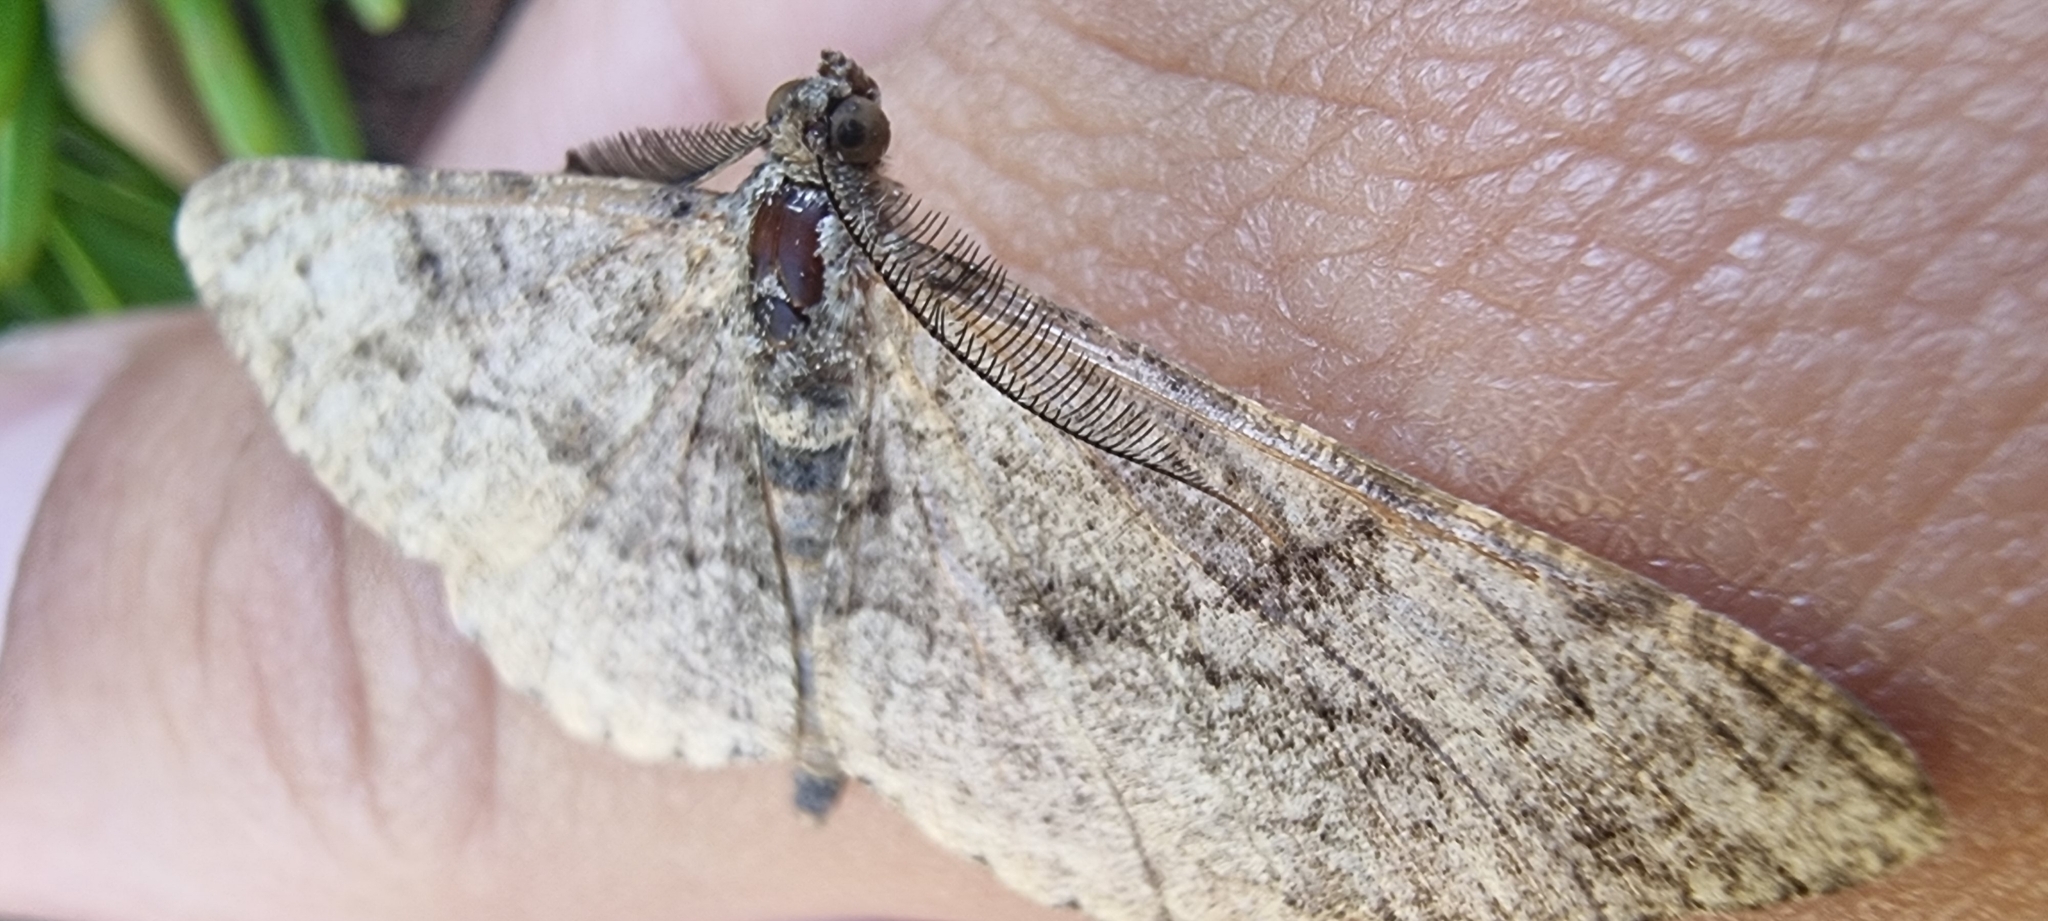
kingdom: Animalia
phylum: Arthropoda
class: Insecta
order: Lepidoptera
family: Geometridae
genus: Peribatodes
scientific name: Peribatodes rhomboidaria
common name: Willow beauty
